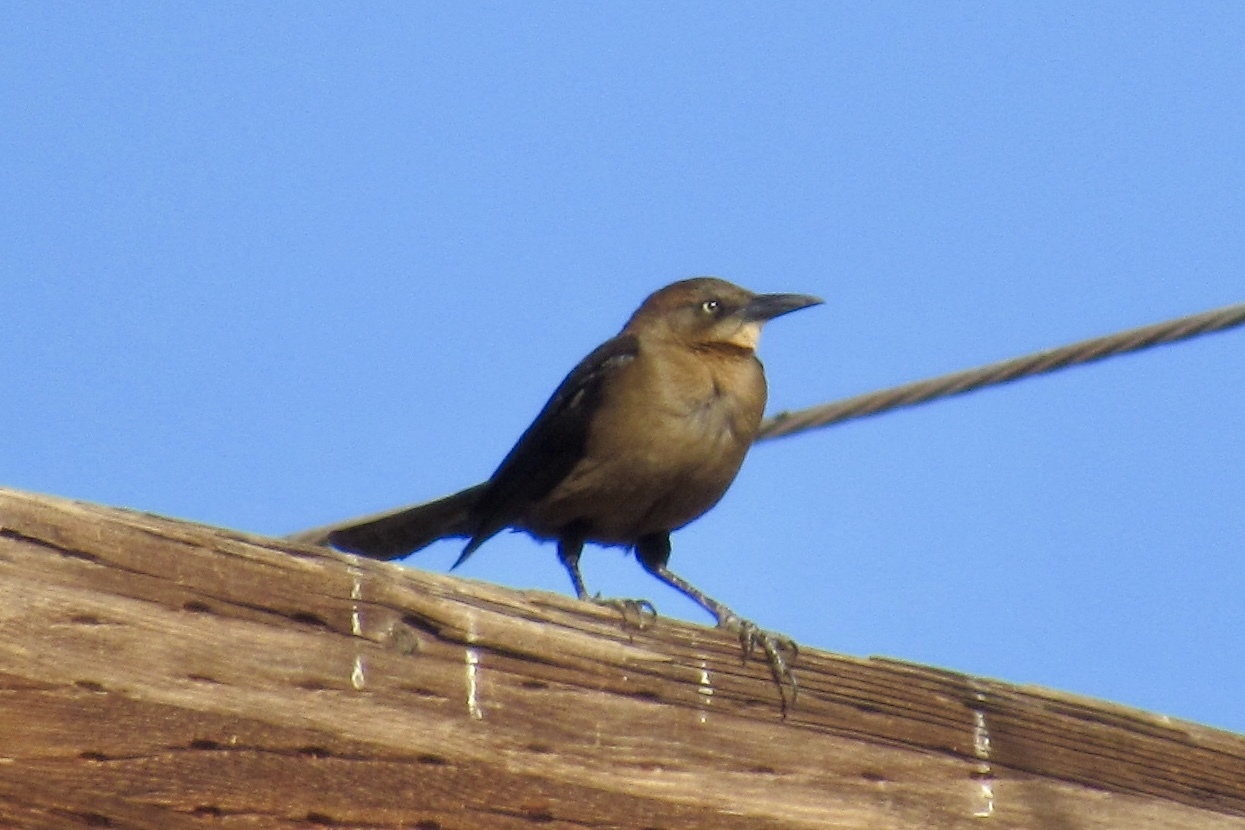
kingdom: Animalia
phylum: Chordata
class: Aves
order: Passeriformes
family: Icteridae
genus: Quiscalus
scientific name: Quiscalus mexicanus
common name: Great-tailed grackle
